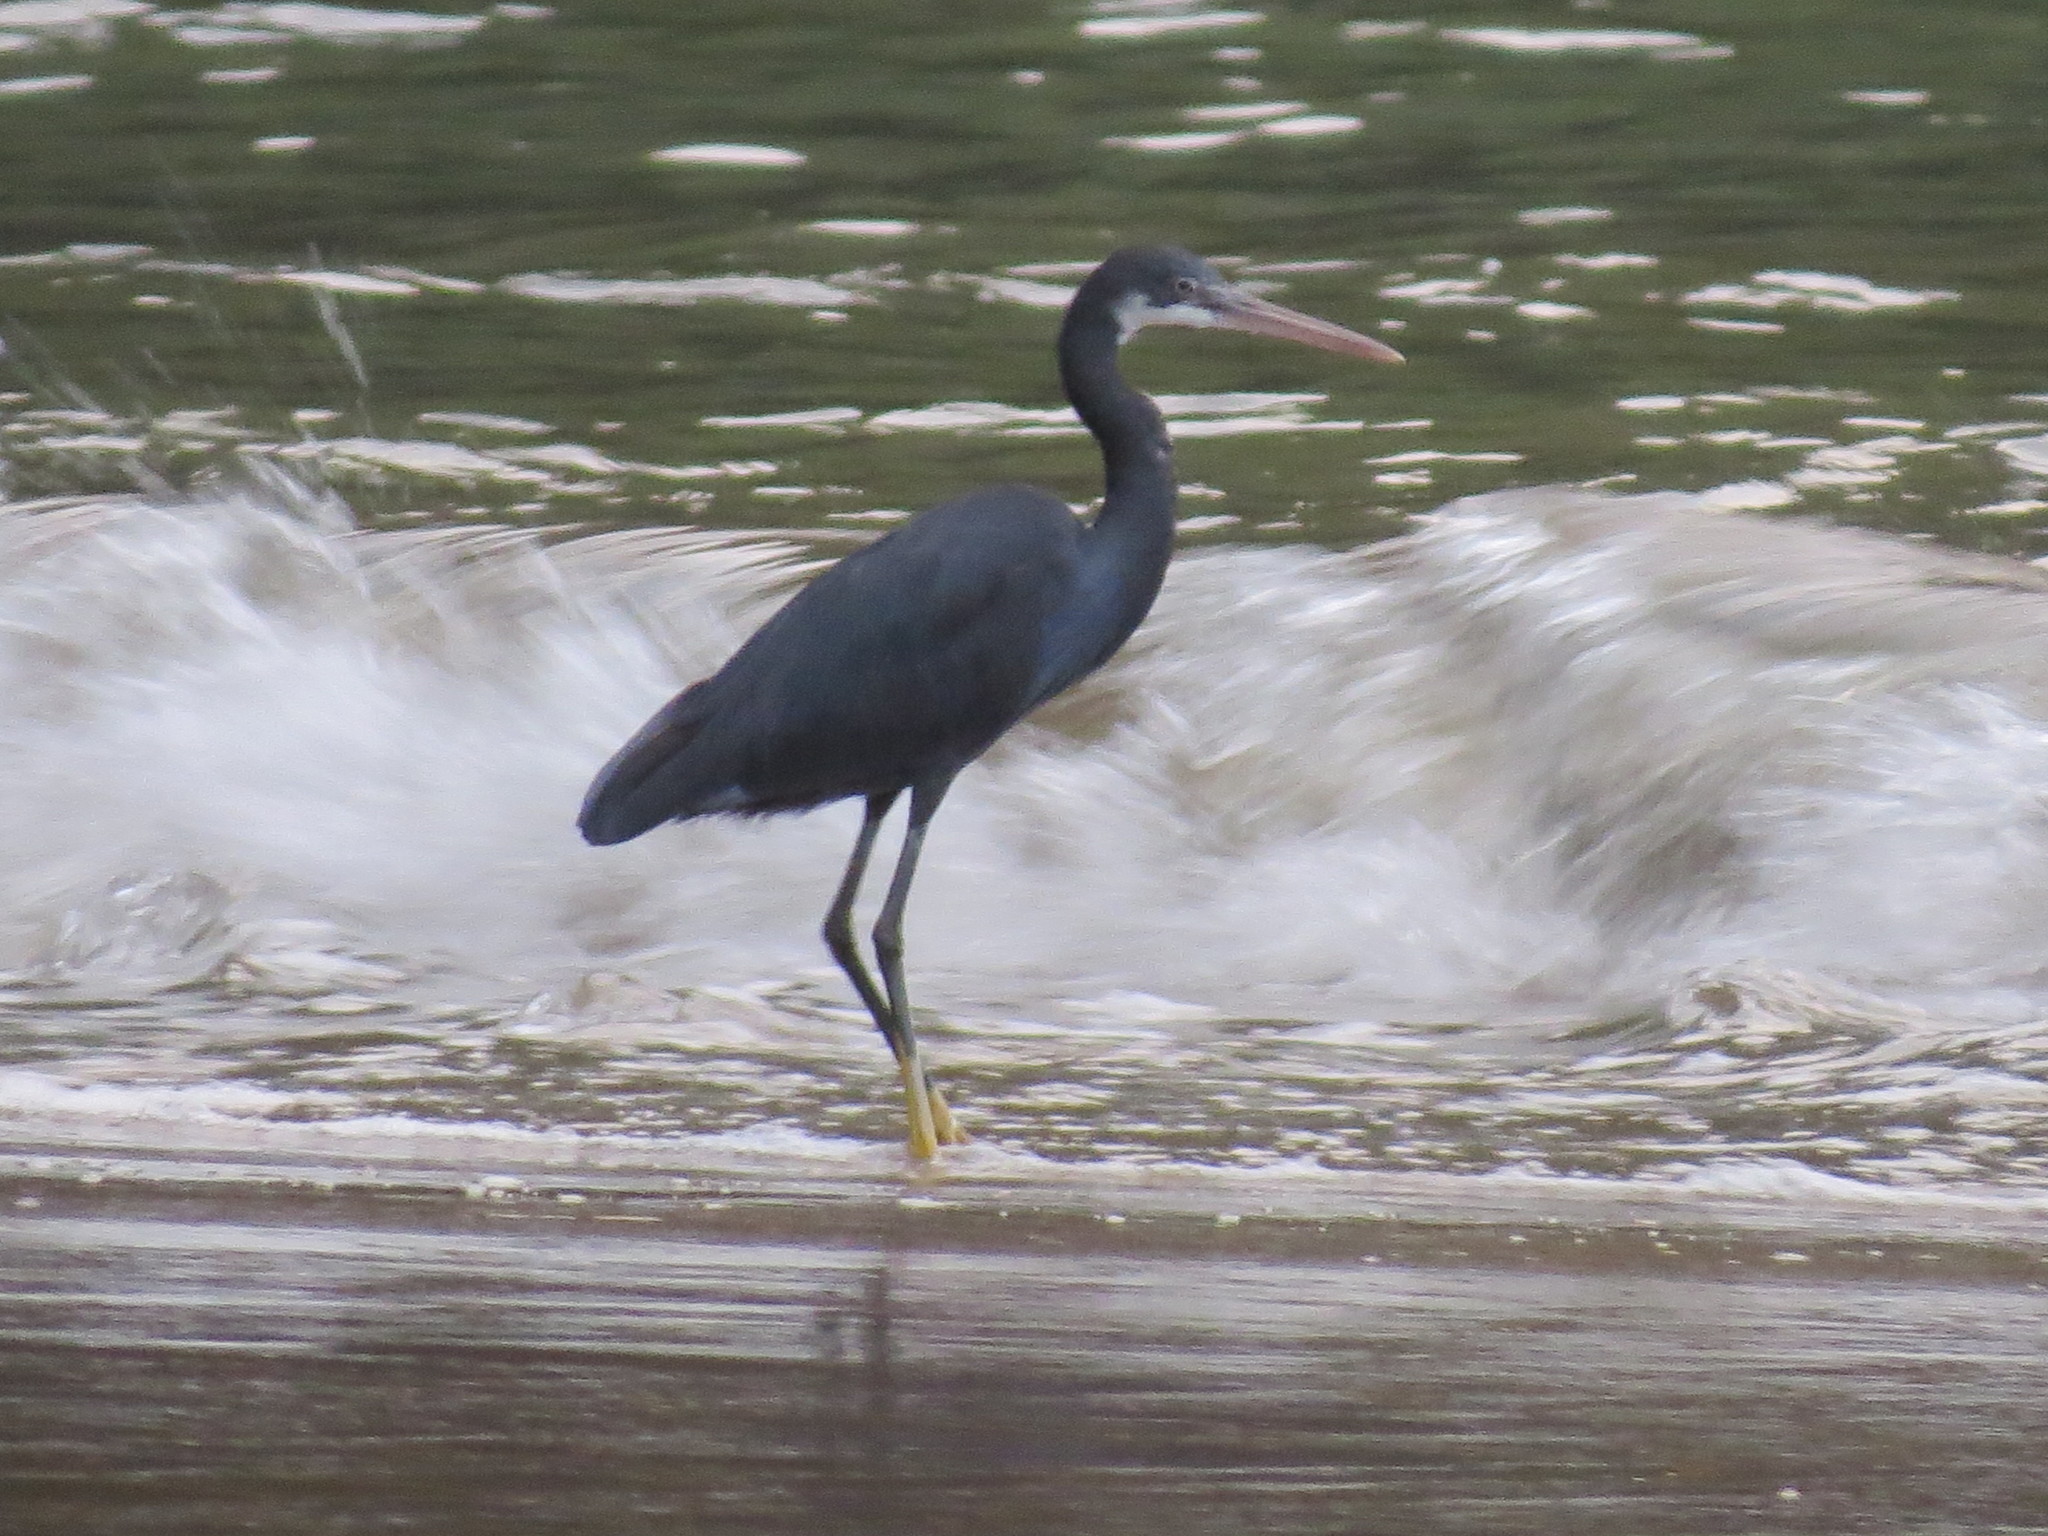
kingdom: Animalia
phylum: Chordata
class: Aves
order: Pelecaniformes
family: Ardeidae
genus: Egretta
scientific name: Egretta gularis
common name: Western reef-heron
